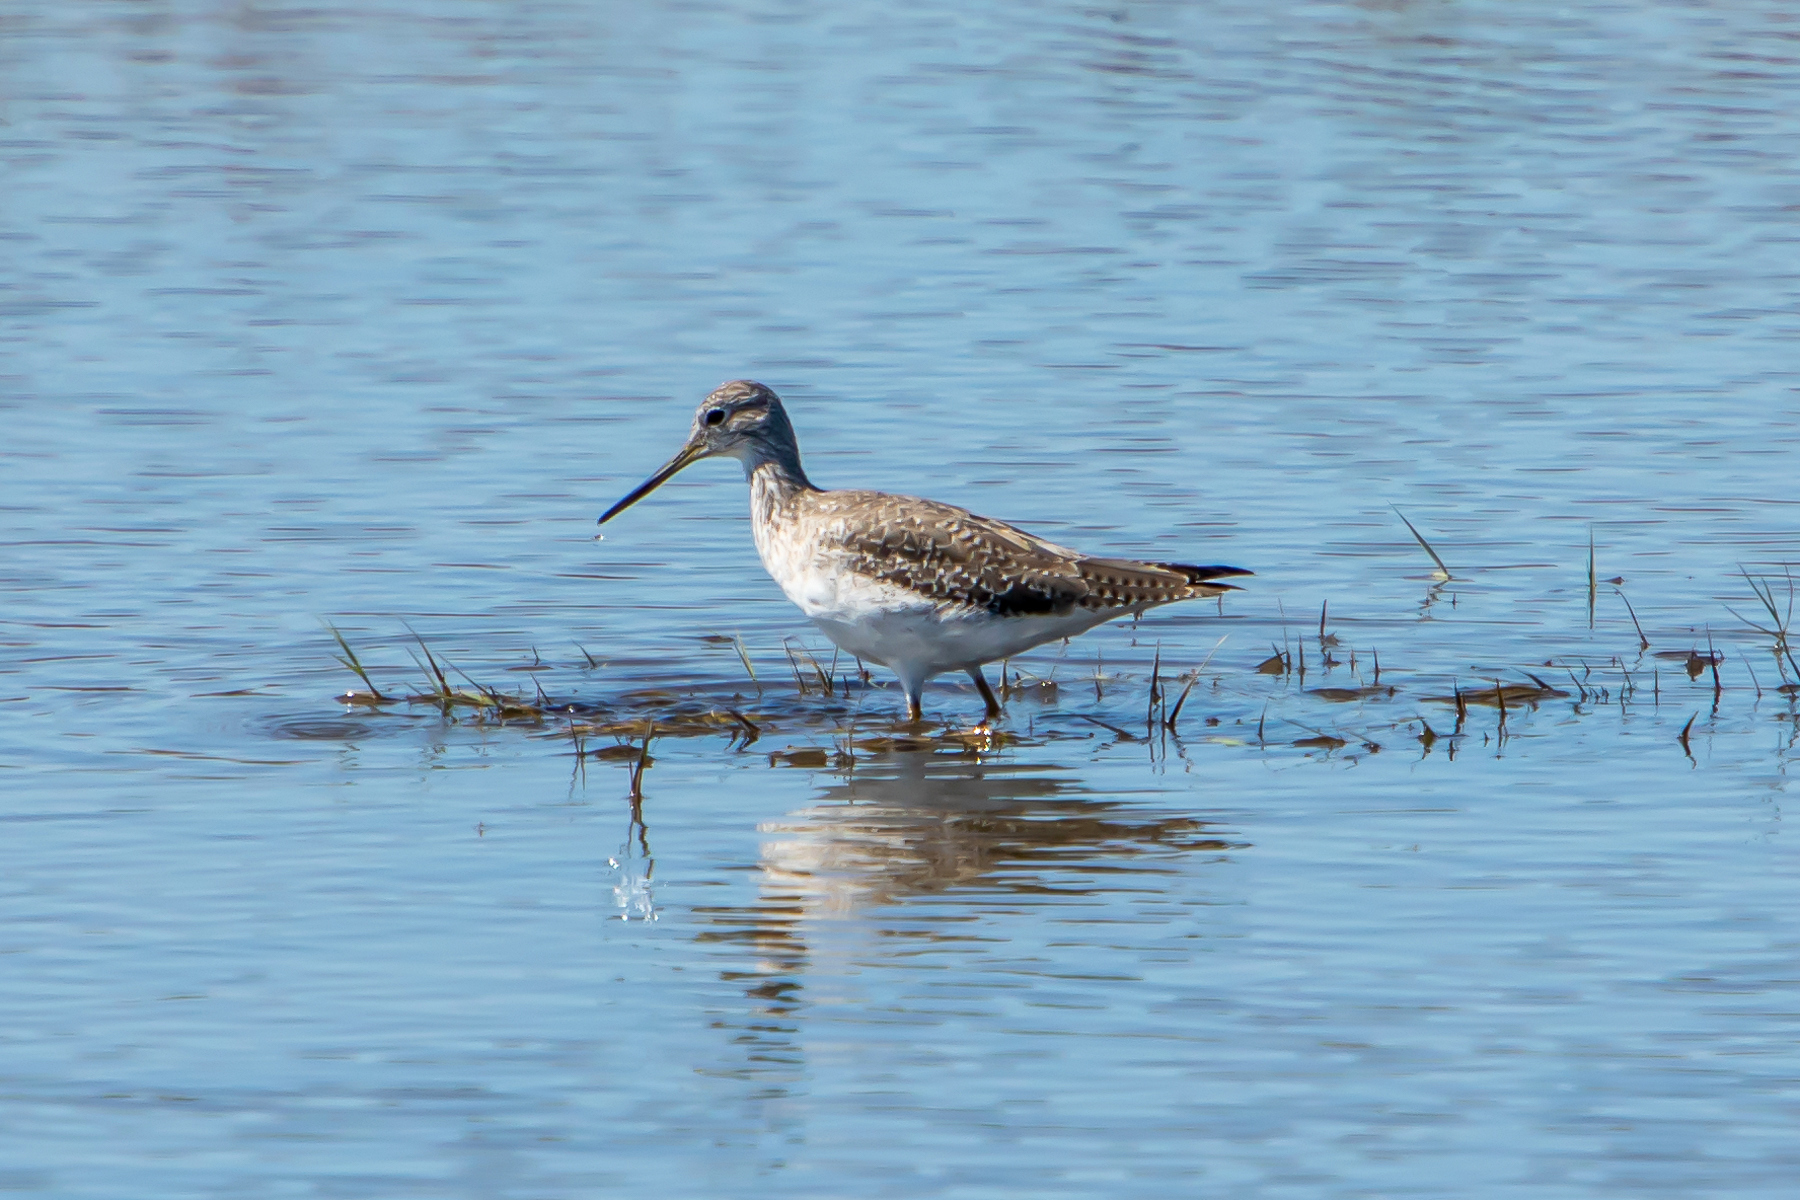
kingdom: Animalia
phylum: Chordata
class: Aves
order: Charadriiformes
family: Scolopacidae
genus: Tringa
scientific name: Tringa melanoleuca
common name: Greater yellowlegs
